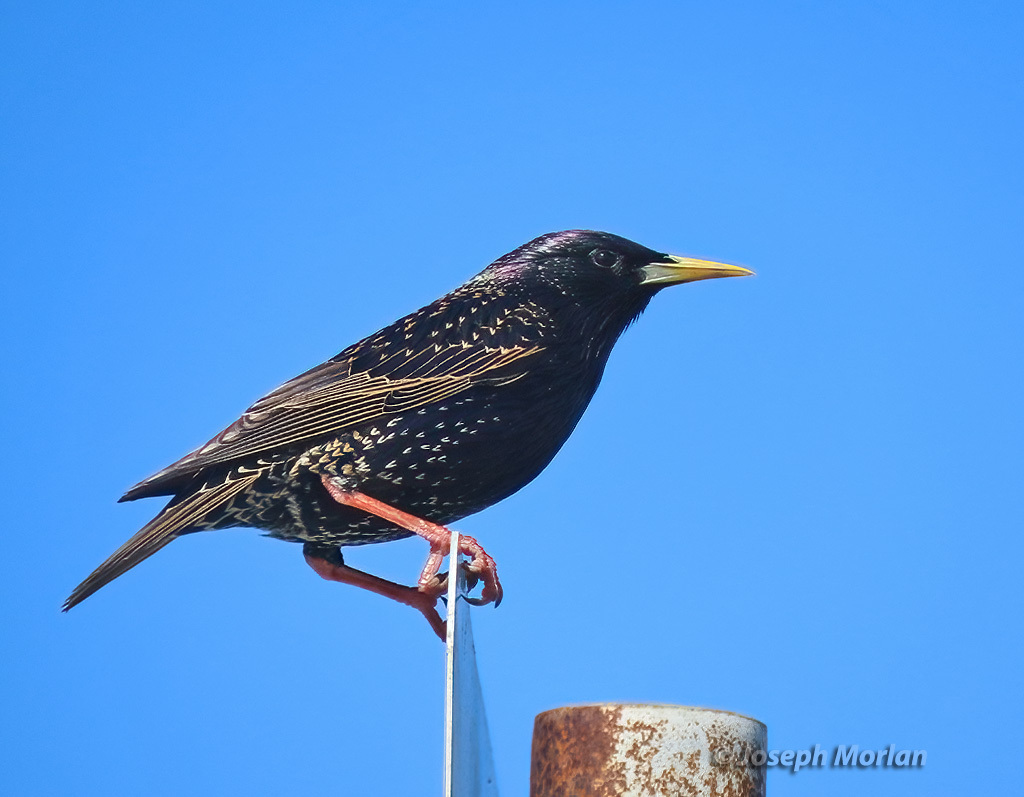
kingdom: Animalia
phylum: Chordata
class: Aves
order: Passeriformes
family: Sturnidae
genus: Sturnus
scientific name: Sturnus vulgaris
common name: Common starling
